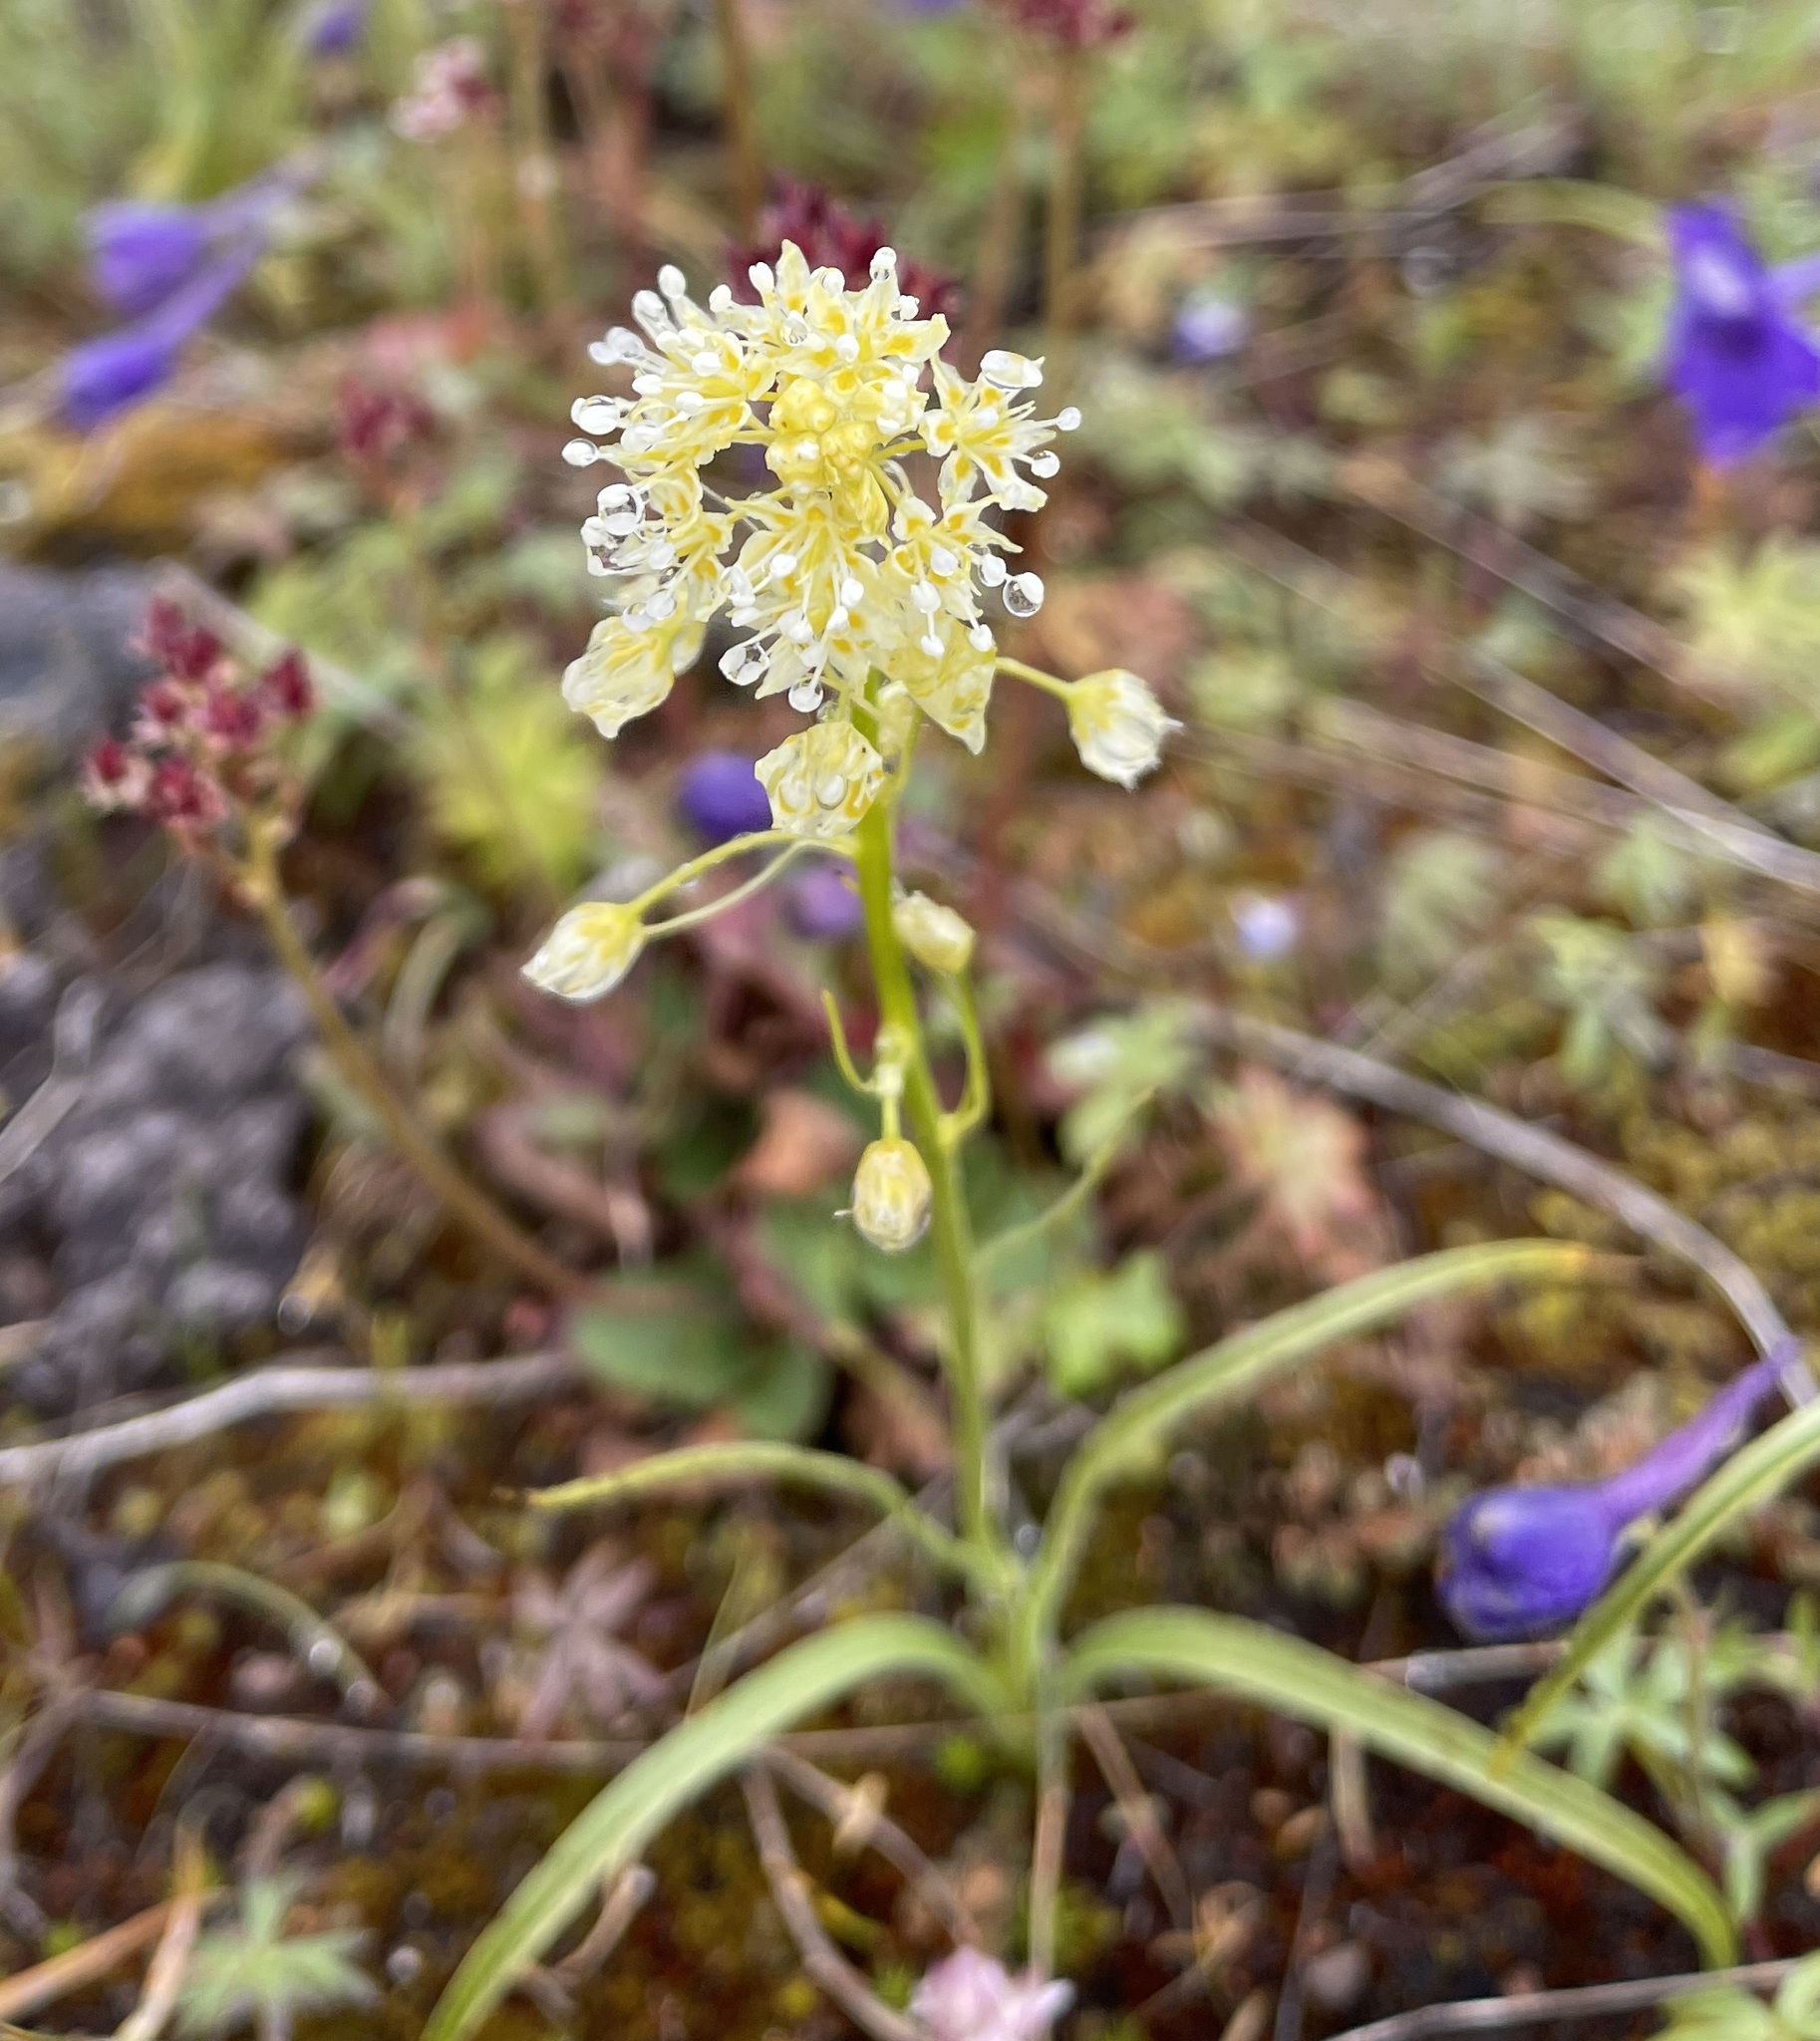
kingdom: Plantae
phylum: Tracheophyta
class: Liliopsida
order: Liliales
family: Melanthiaceae
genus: Toxicoscordion
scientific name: Toxicoscordion venenosum
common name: Meadow death camas
